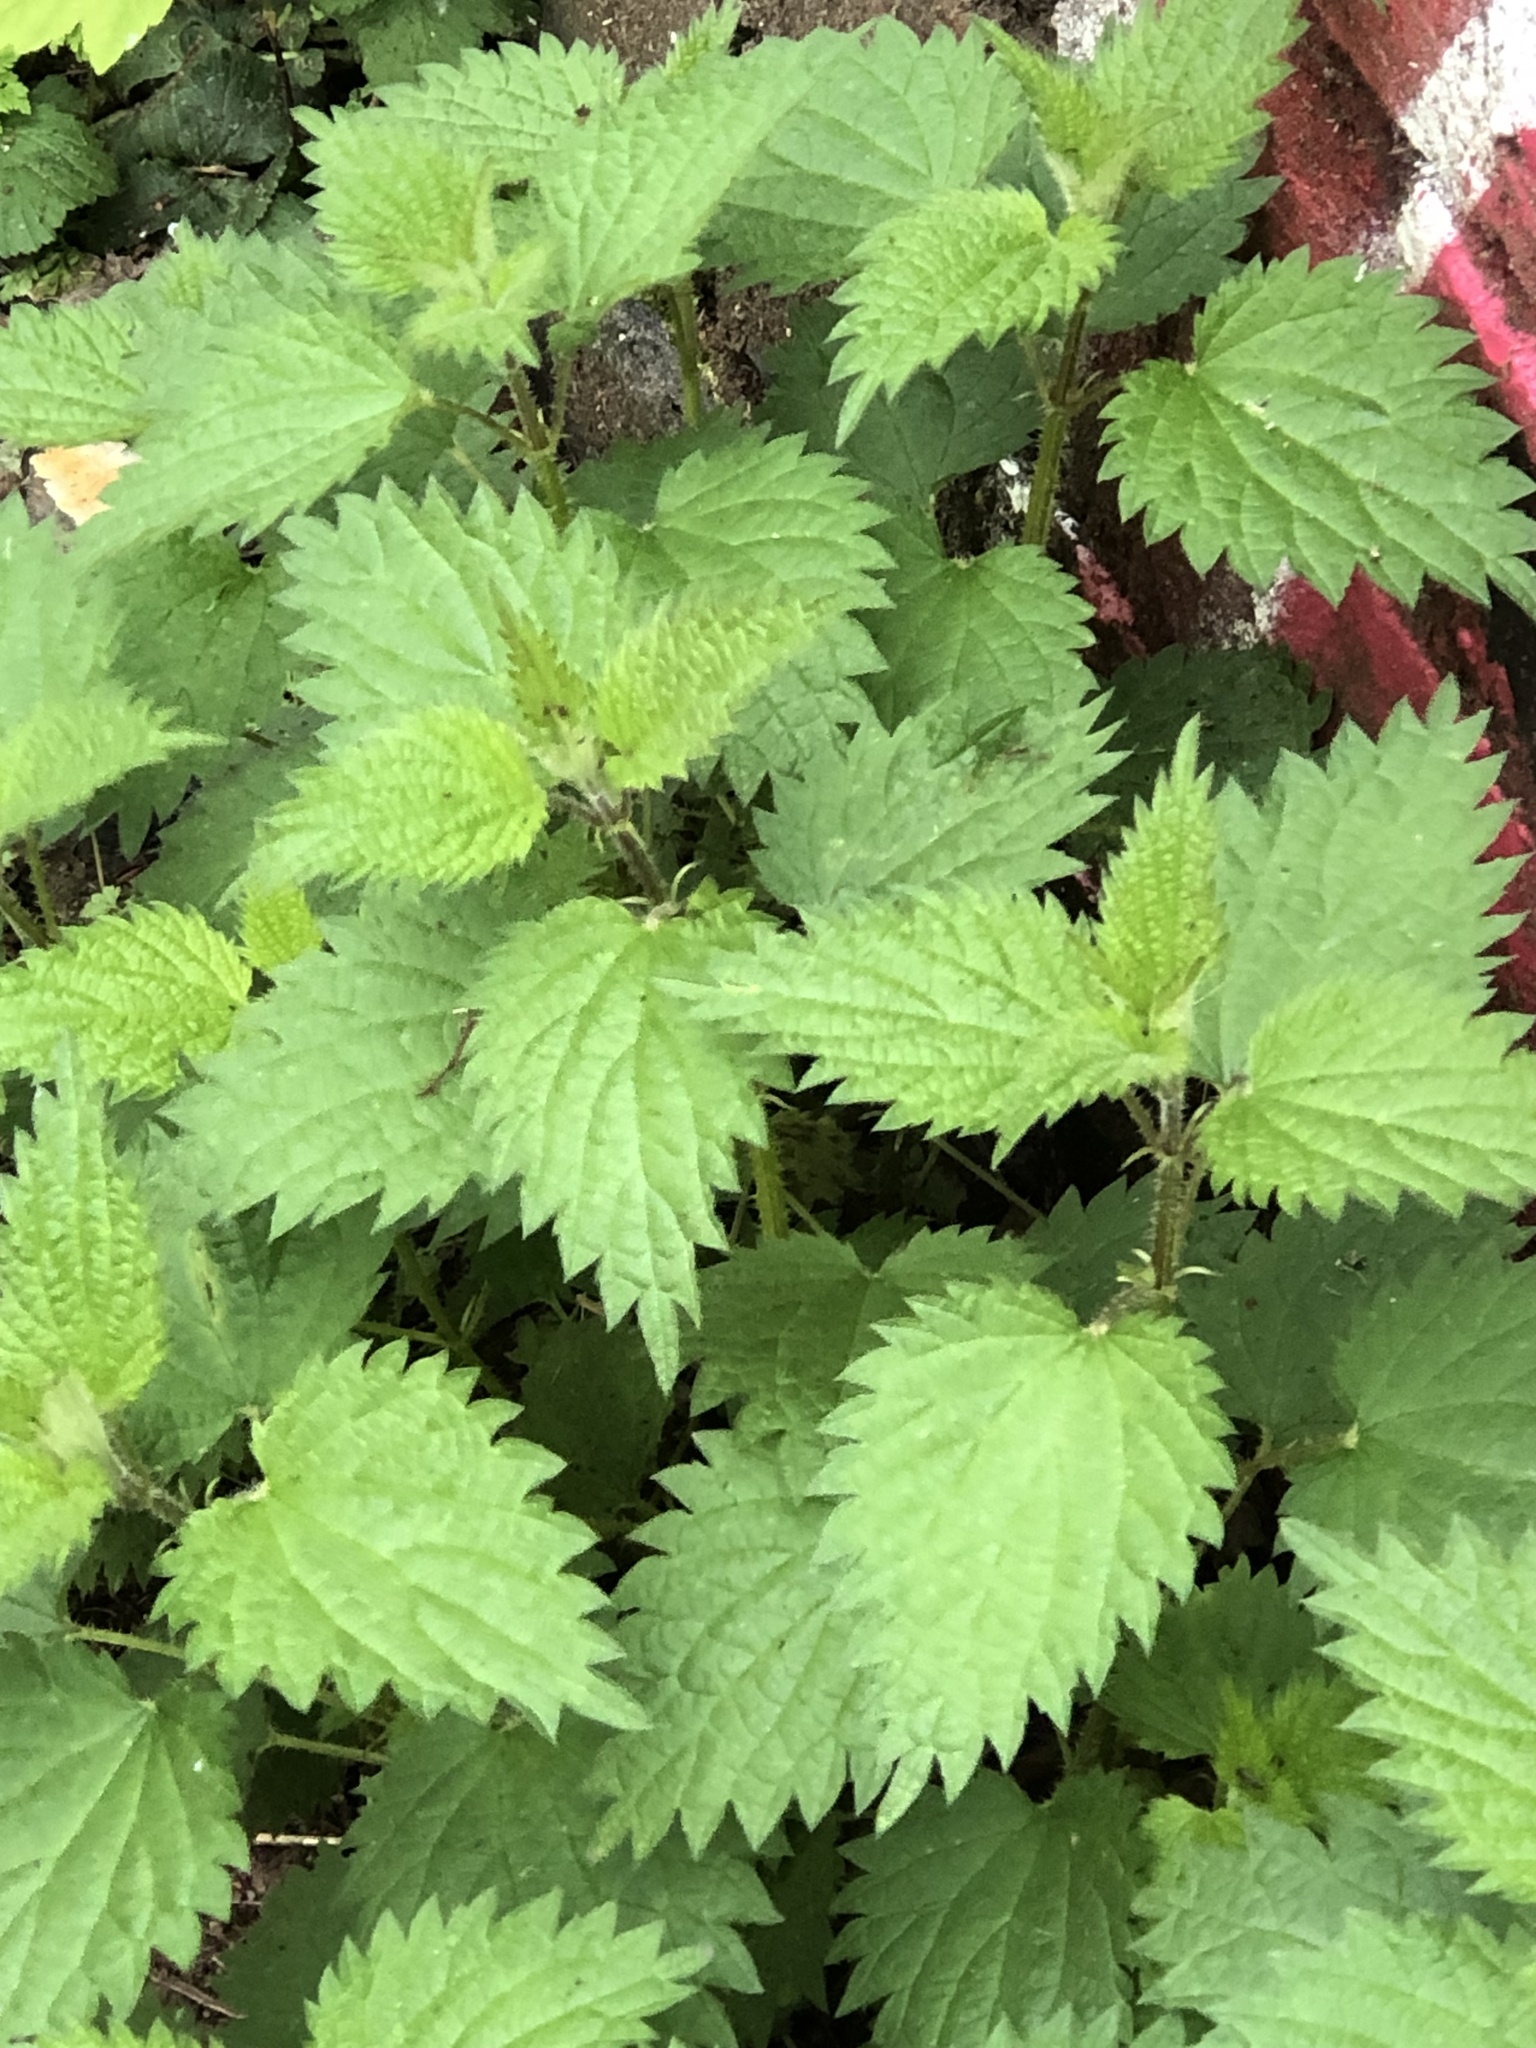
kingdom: Plantae
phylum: Tracheophyta
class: Magnoliopsida
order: Rosales
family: Urticaceae
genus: Urtica
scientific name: Urtica dioica
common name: Common nettle
